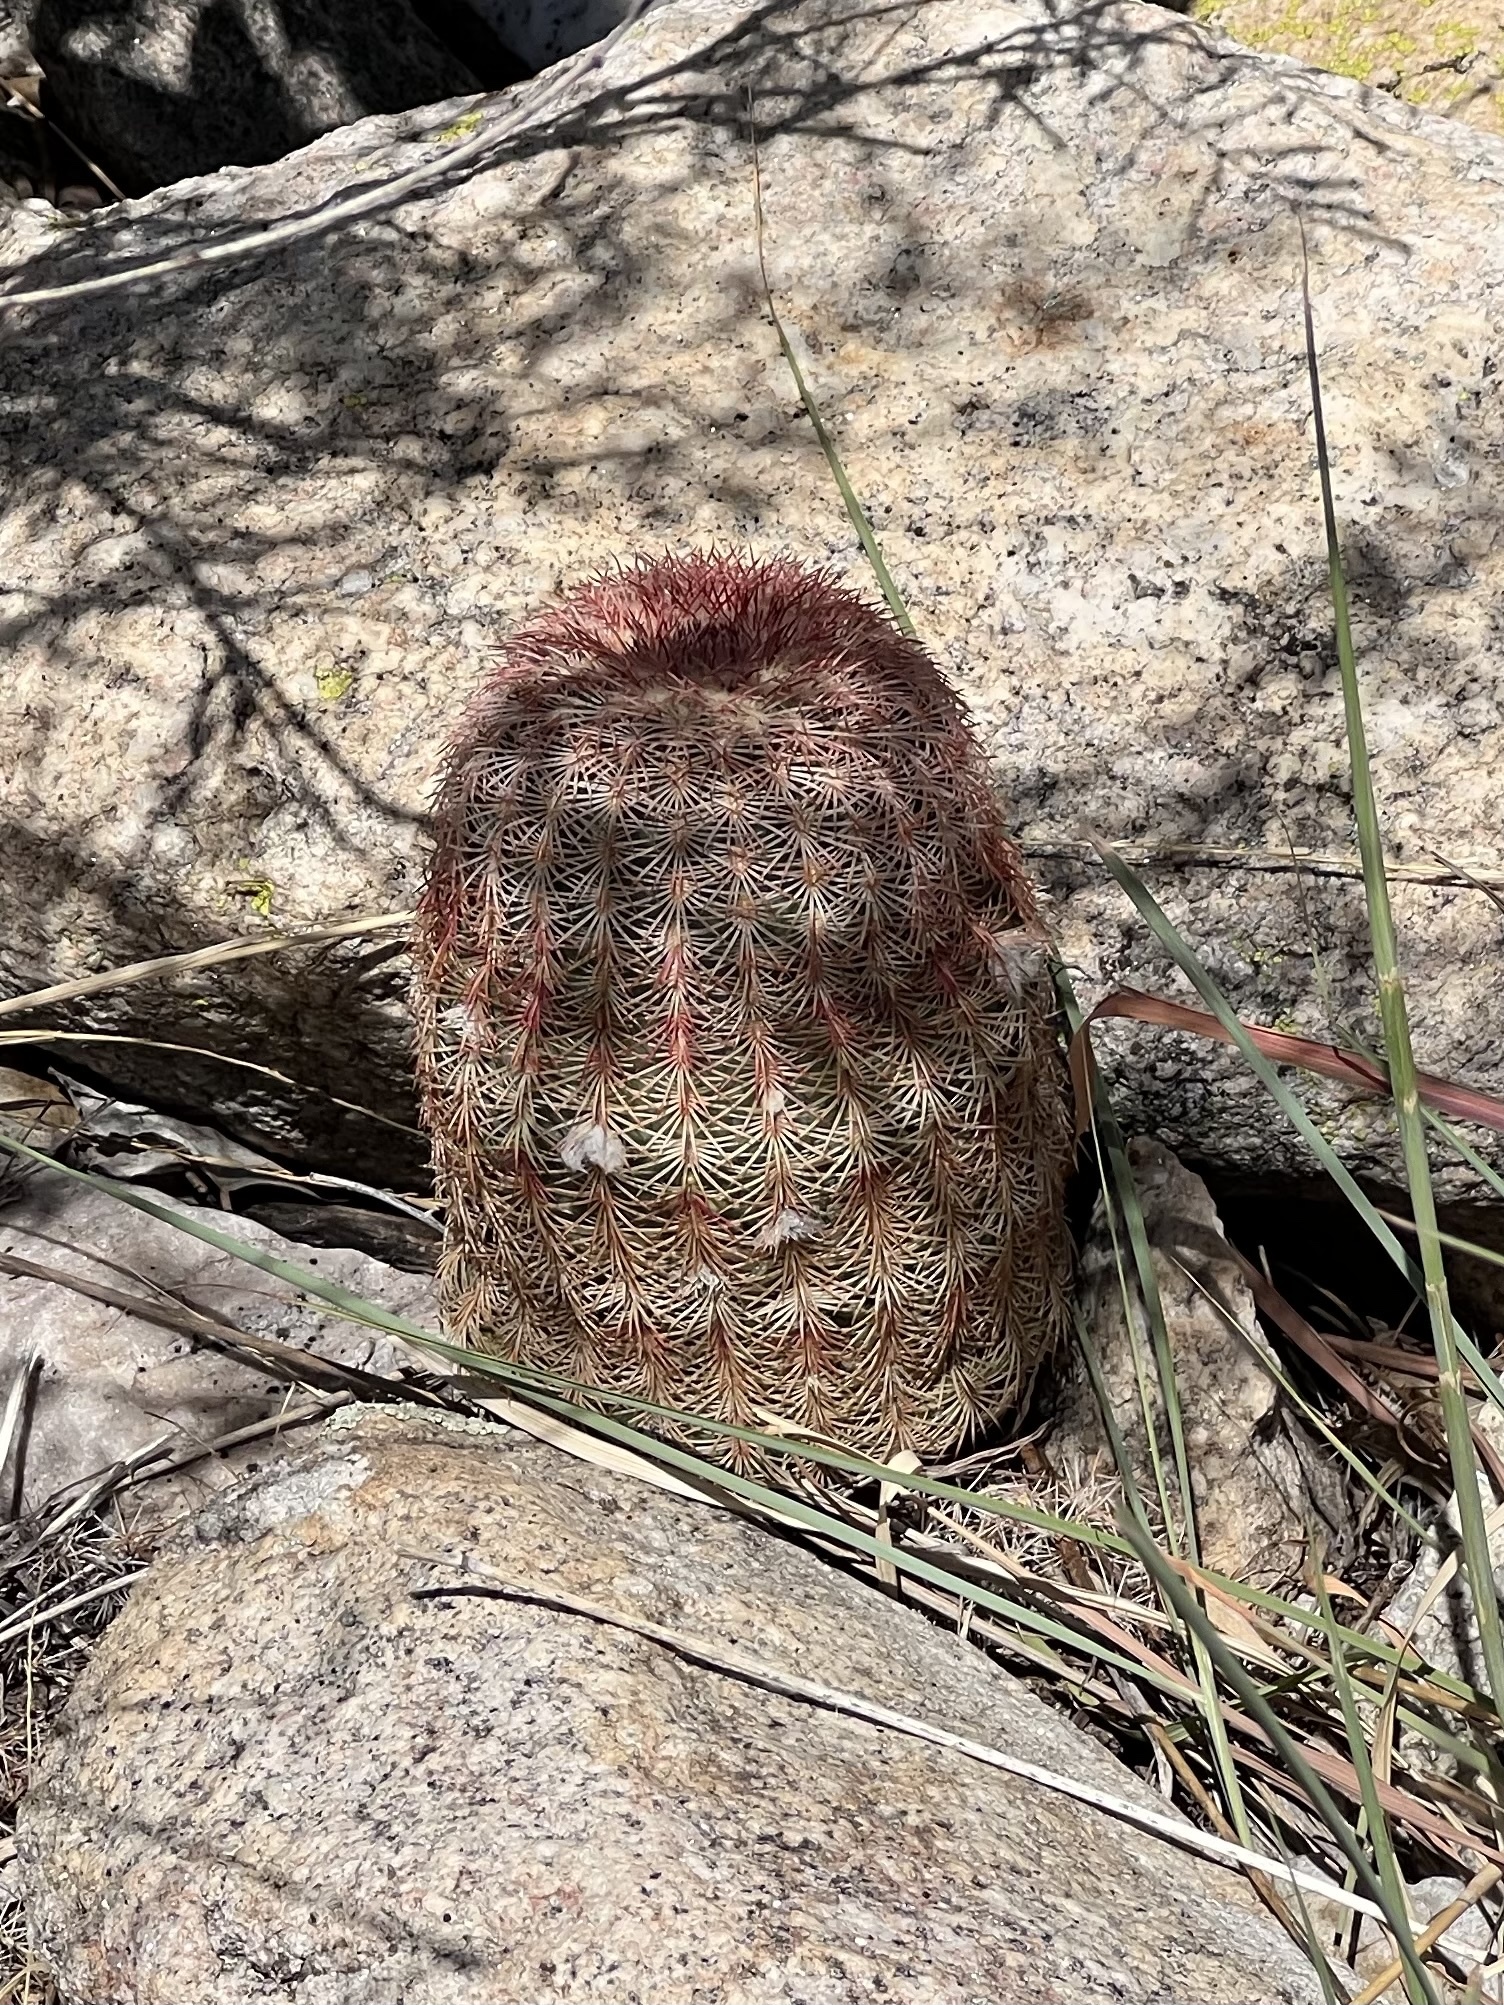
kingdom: Plantae
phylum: Tracheophyta
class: Magnoliopsida
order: Caryophyllales
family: Cactaceae
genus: Echinocereus
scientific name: Echinocereus rigidissimus
